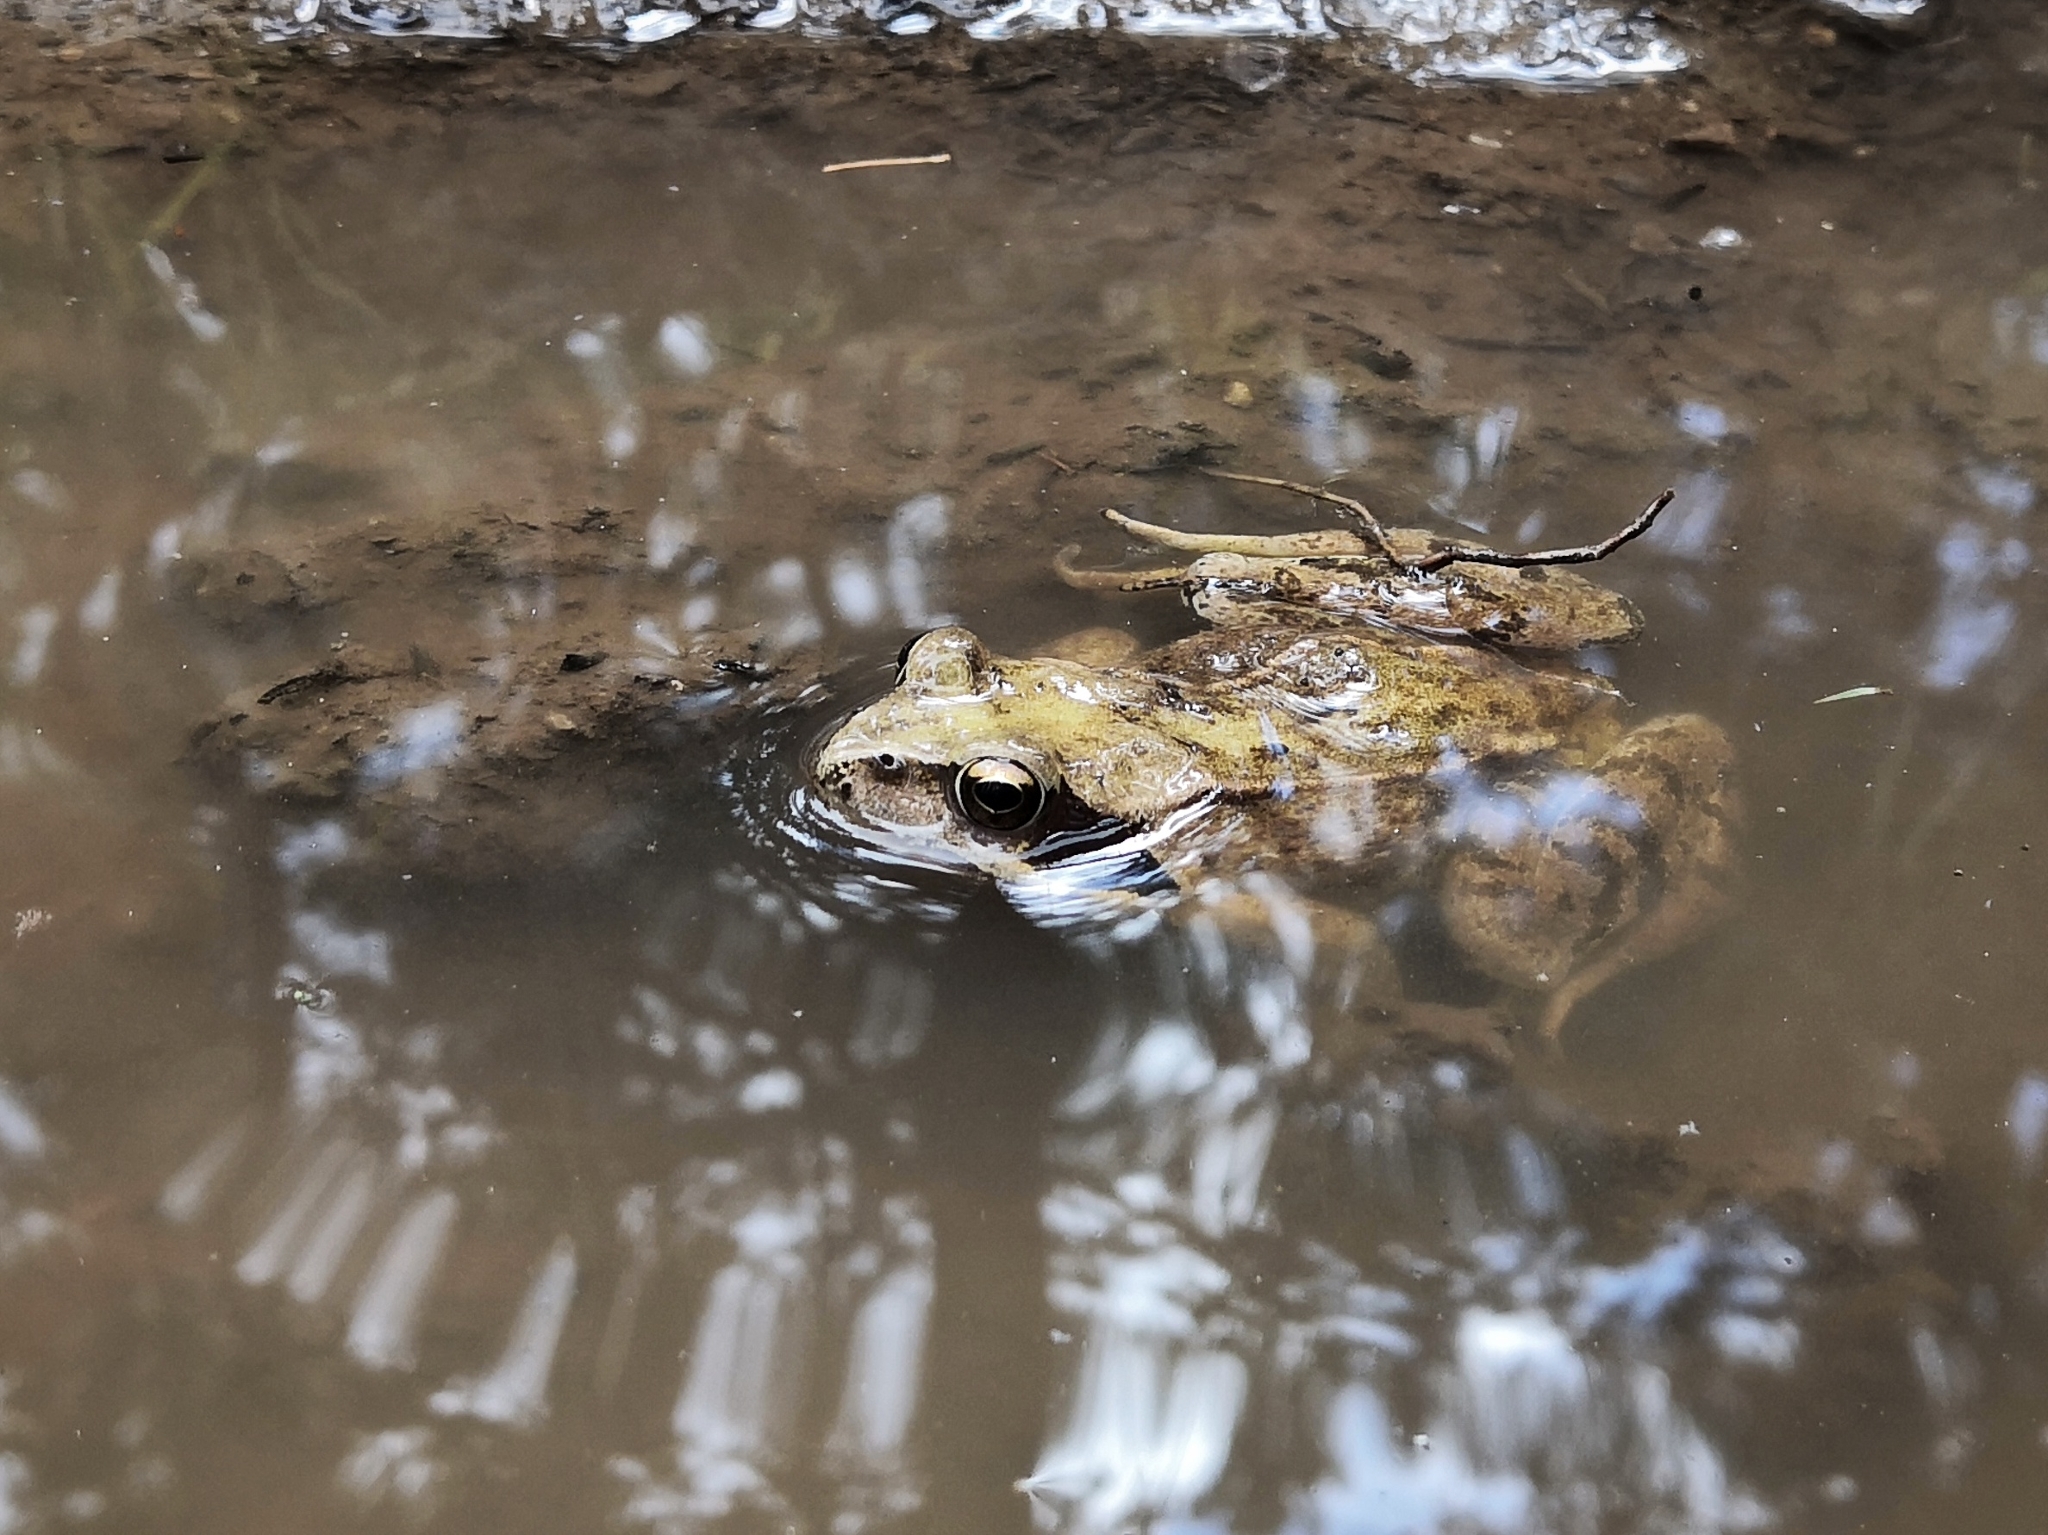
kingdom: Animalia
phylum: Chordata
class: Amphibia
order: Anura
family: Ranidae
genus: Rana
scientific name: Rana temporaria
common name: Common frog
